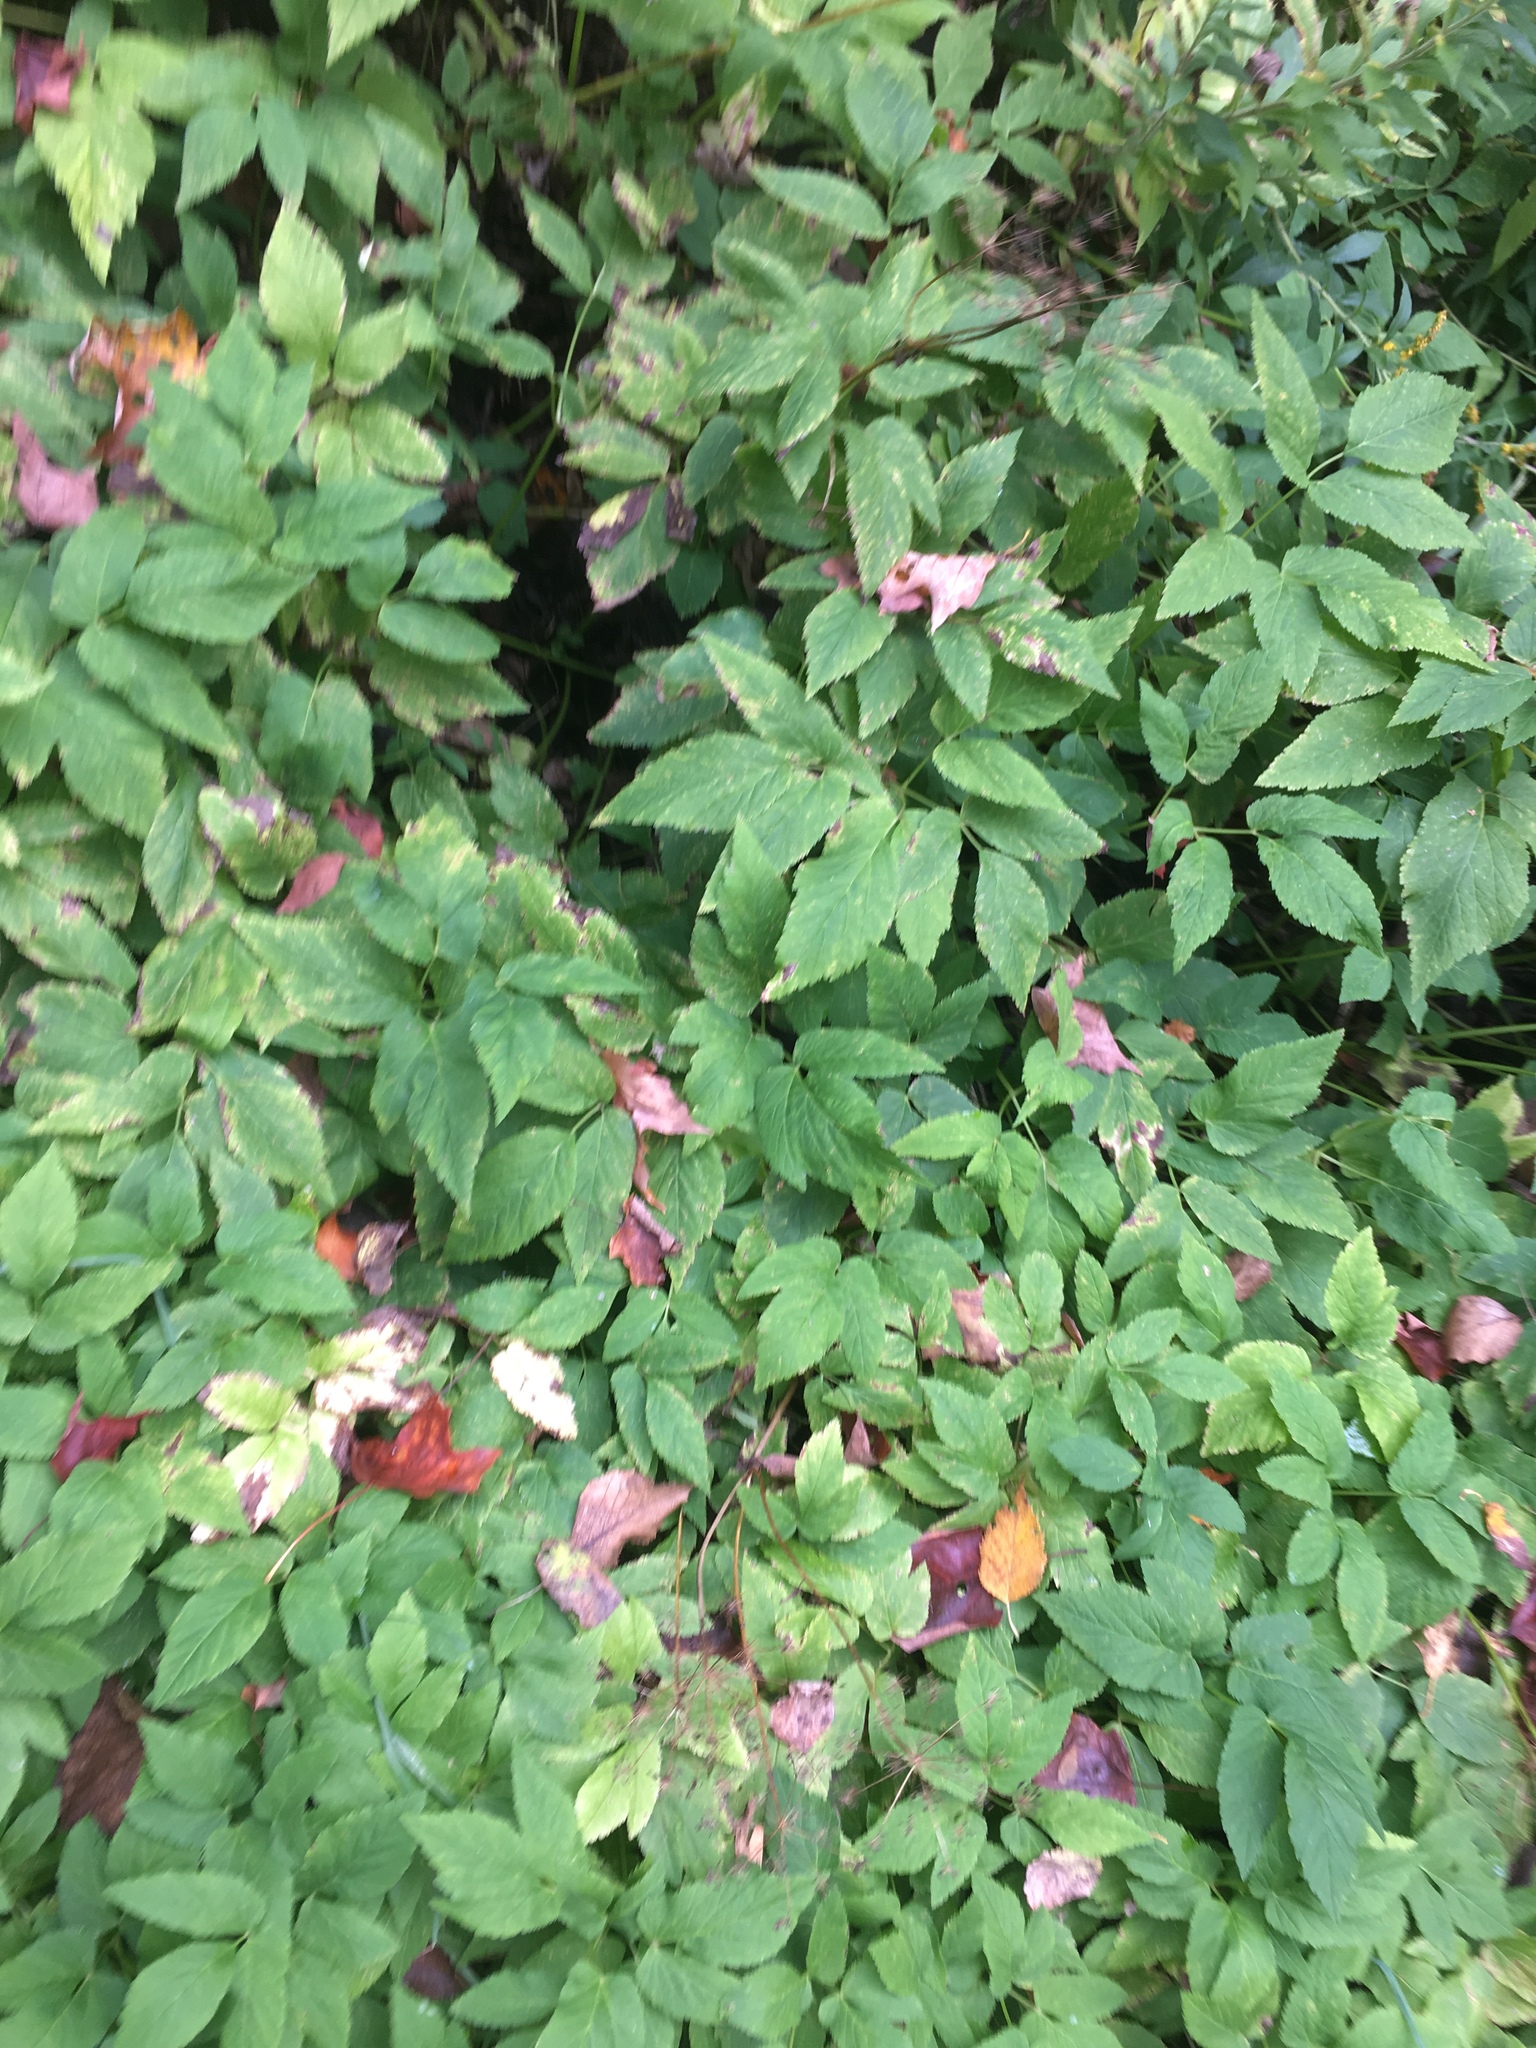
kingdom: Plantae
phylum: Tracheophyta
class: Magnoliopsida
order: Apiales
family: Apiaceae
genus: Aegopodium
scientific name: Aegopodium podagraria
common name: Ground-elder
